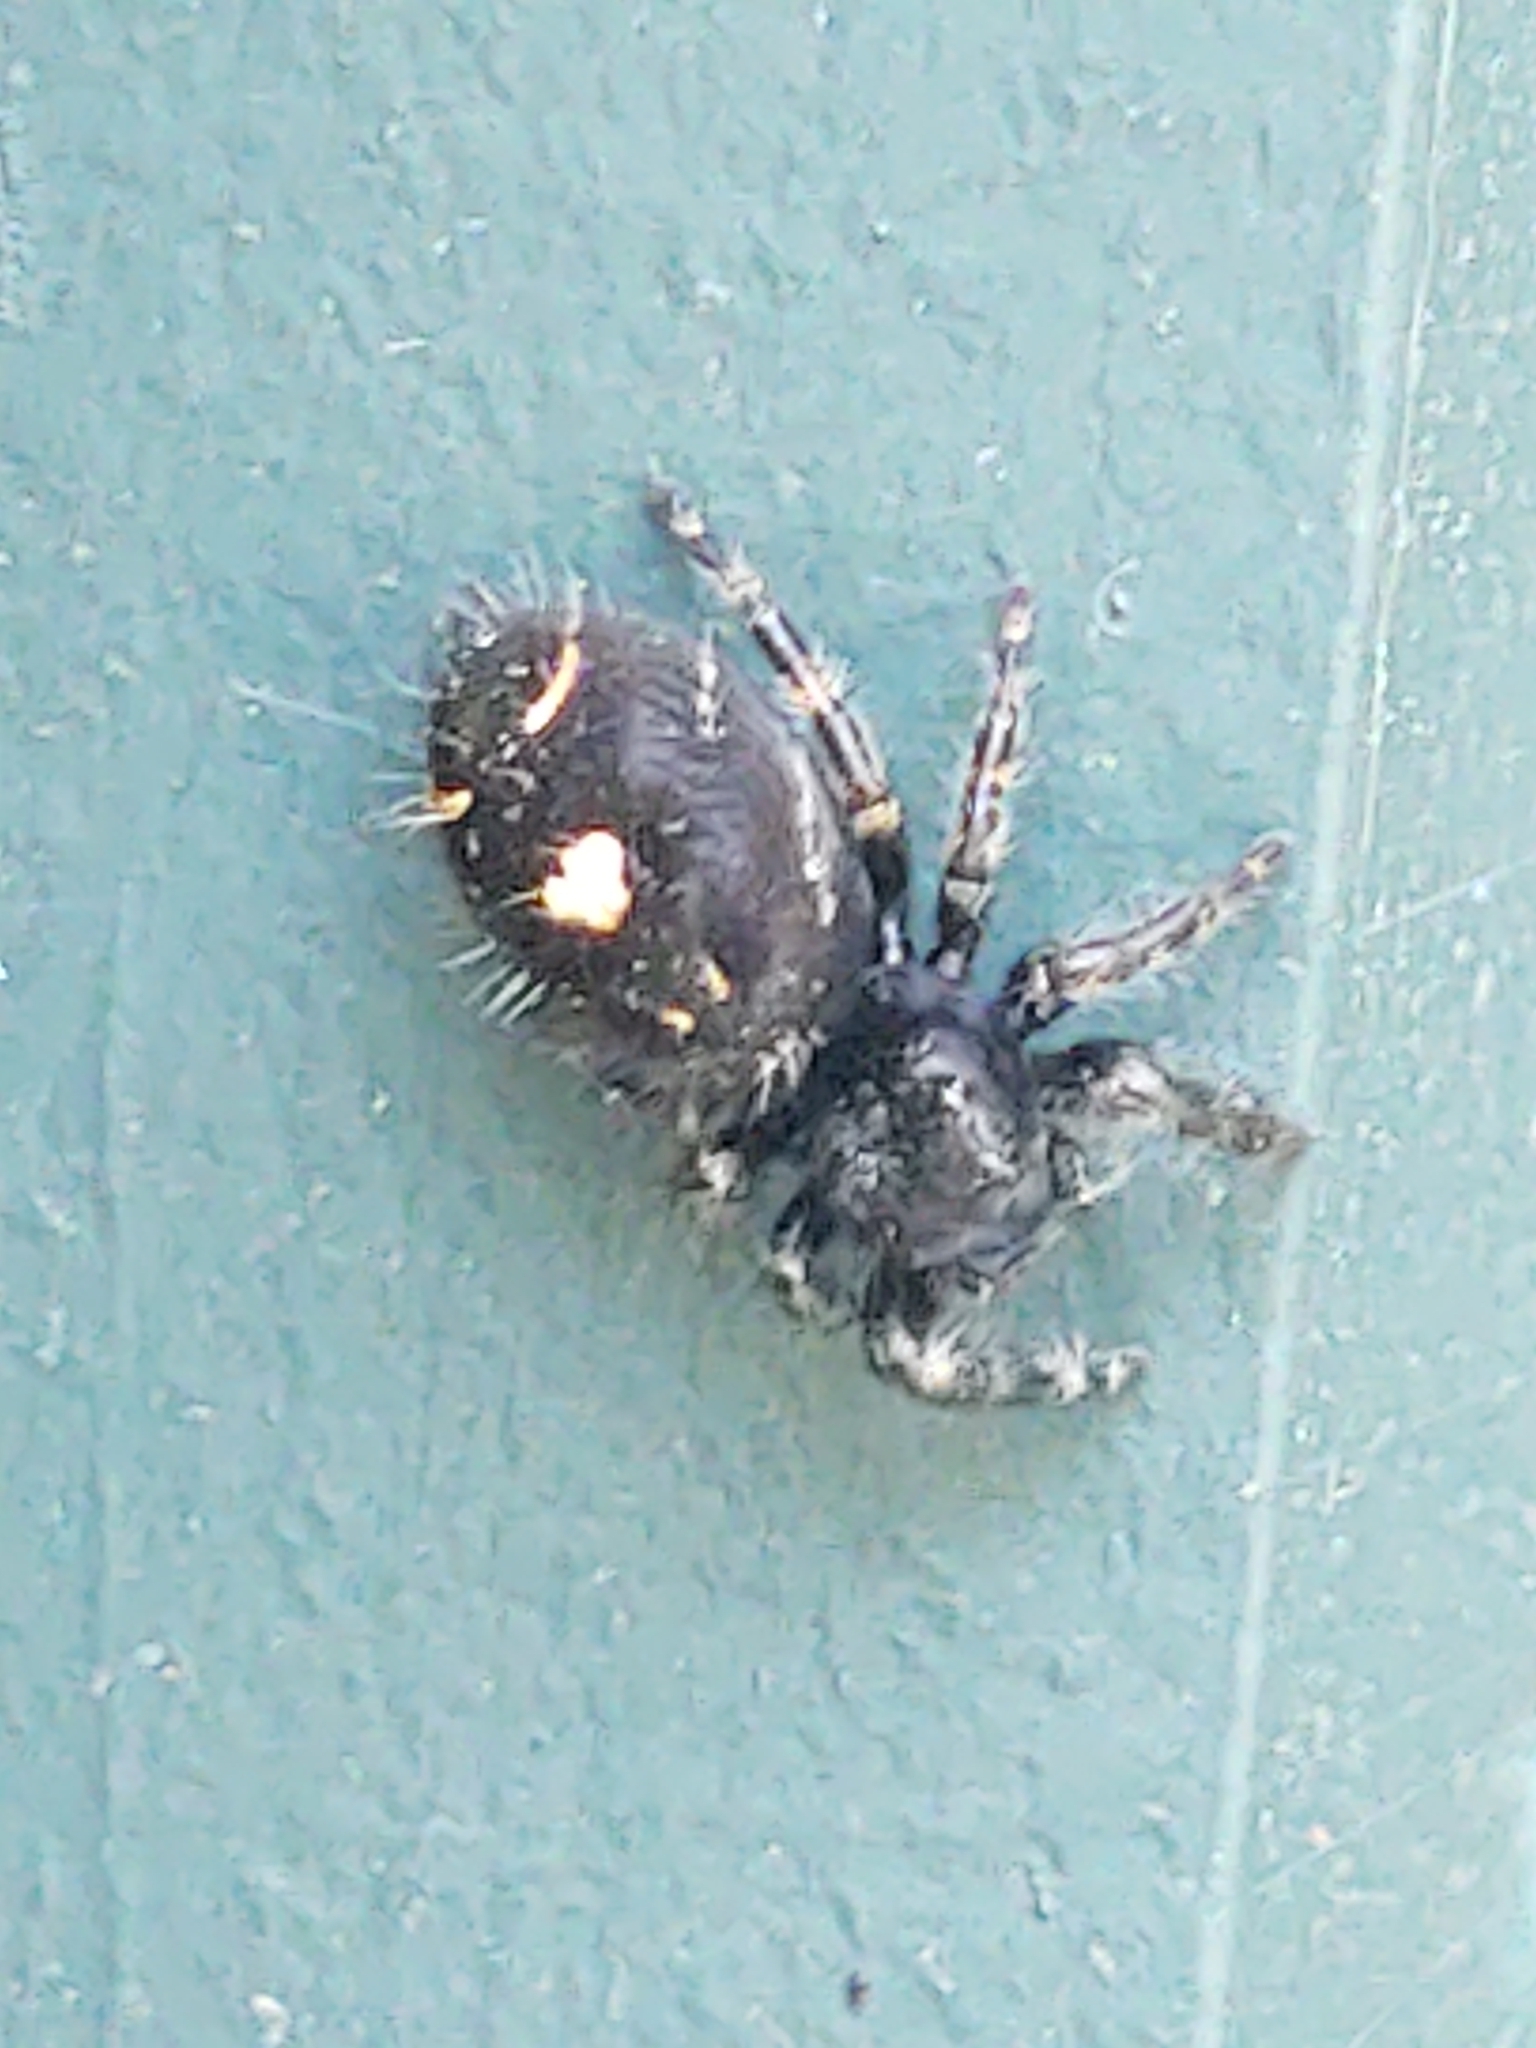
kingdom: Animalia
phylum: Arthropoda
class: Arachnida
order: Araneae
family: Salticidae
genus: Phidippus
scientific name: Phidippus audax
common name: Bold jumper
